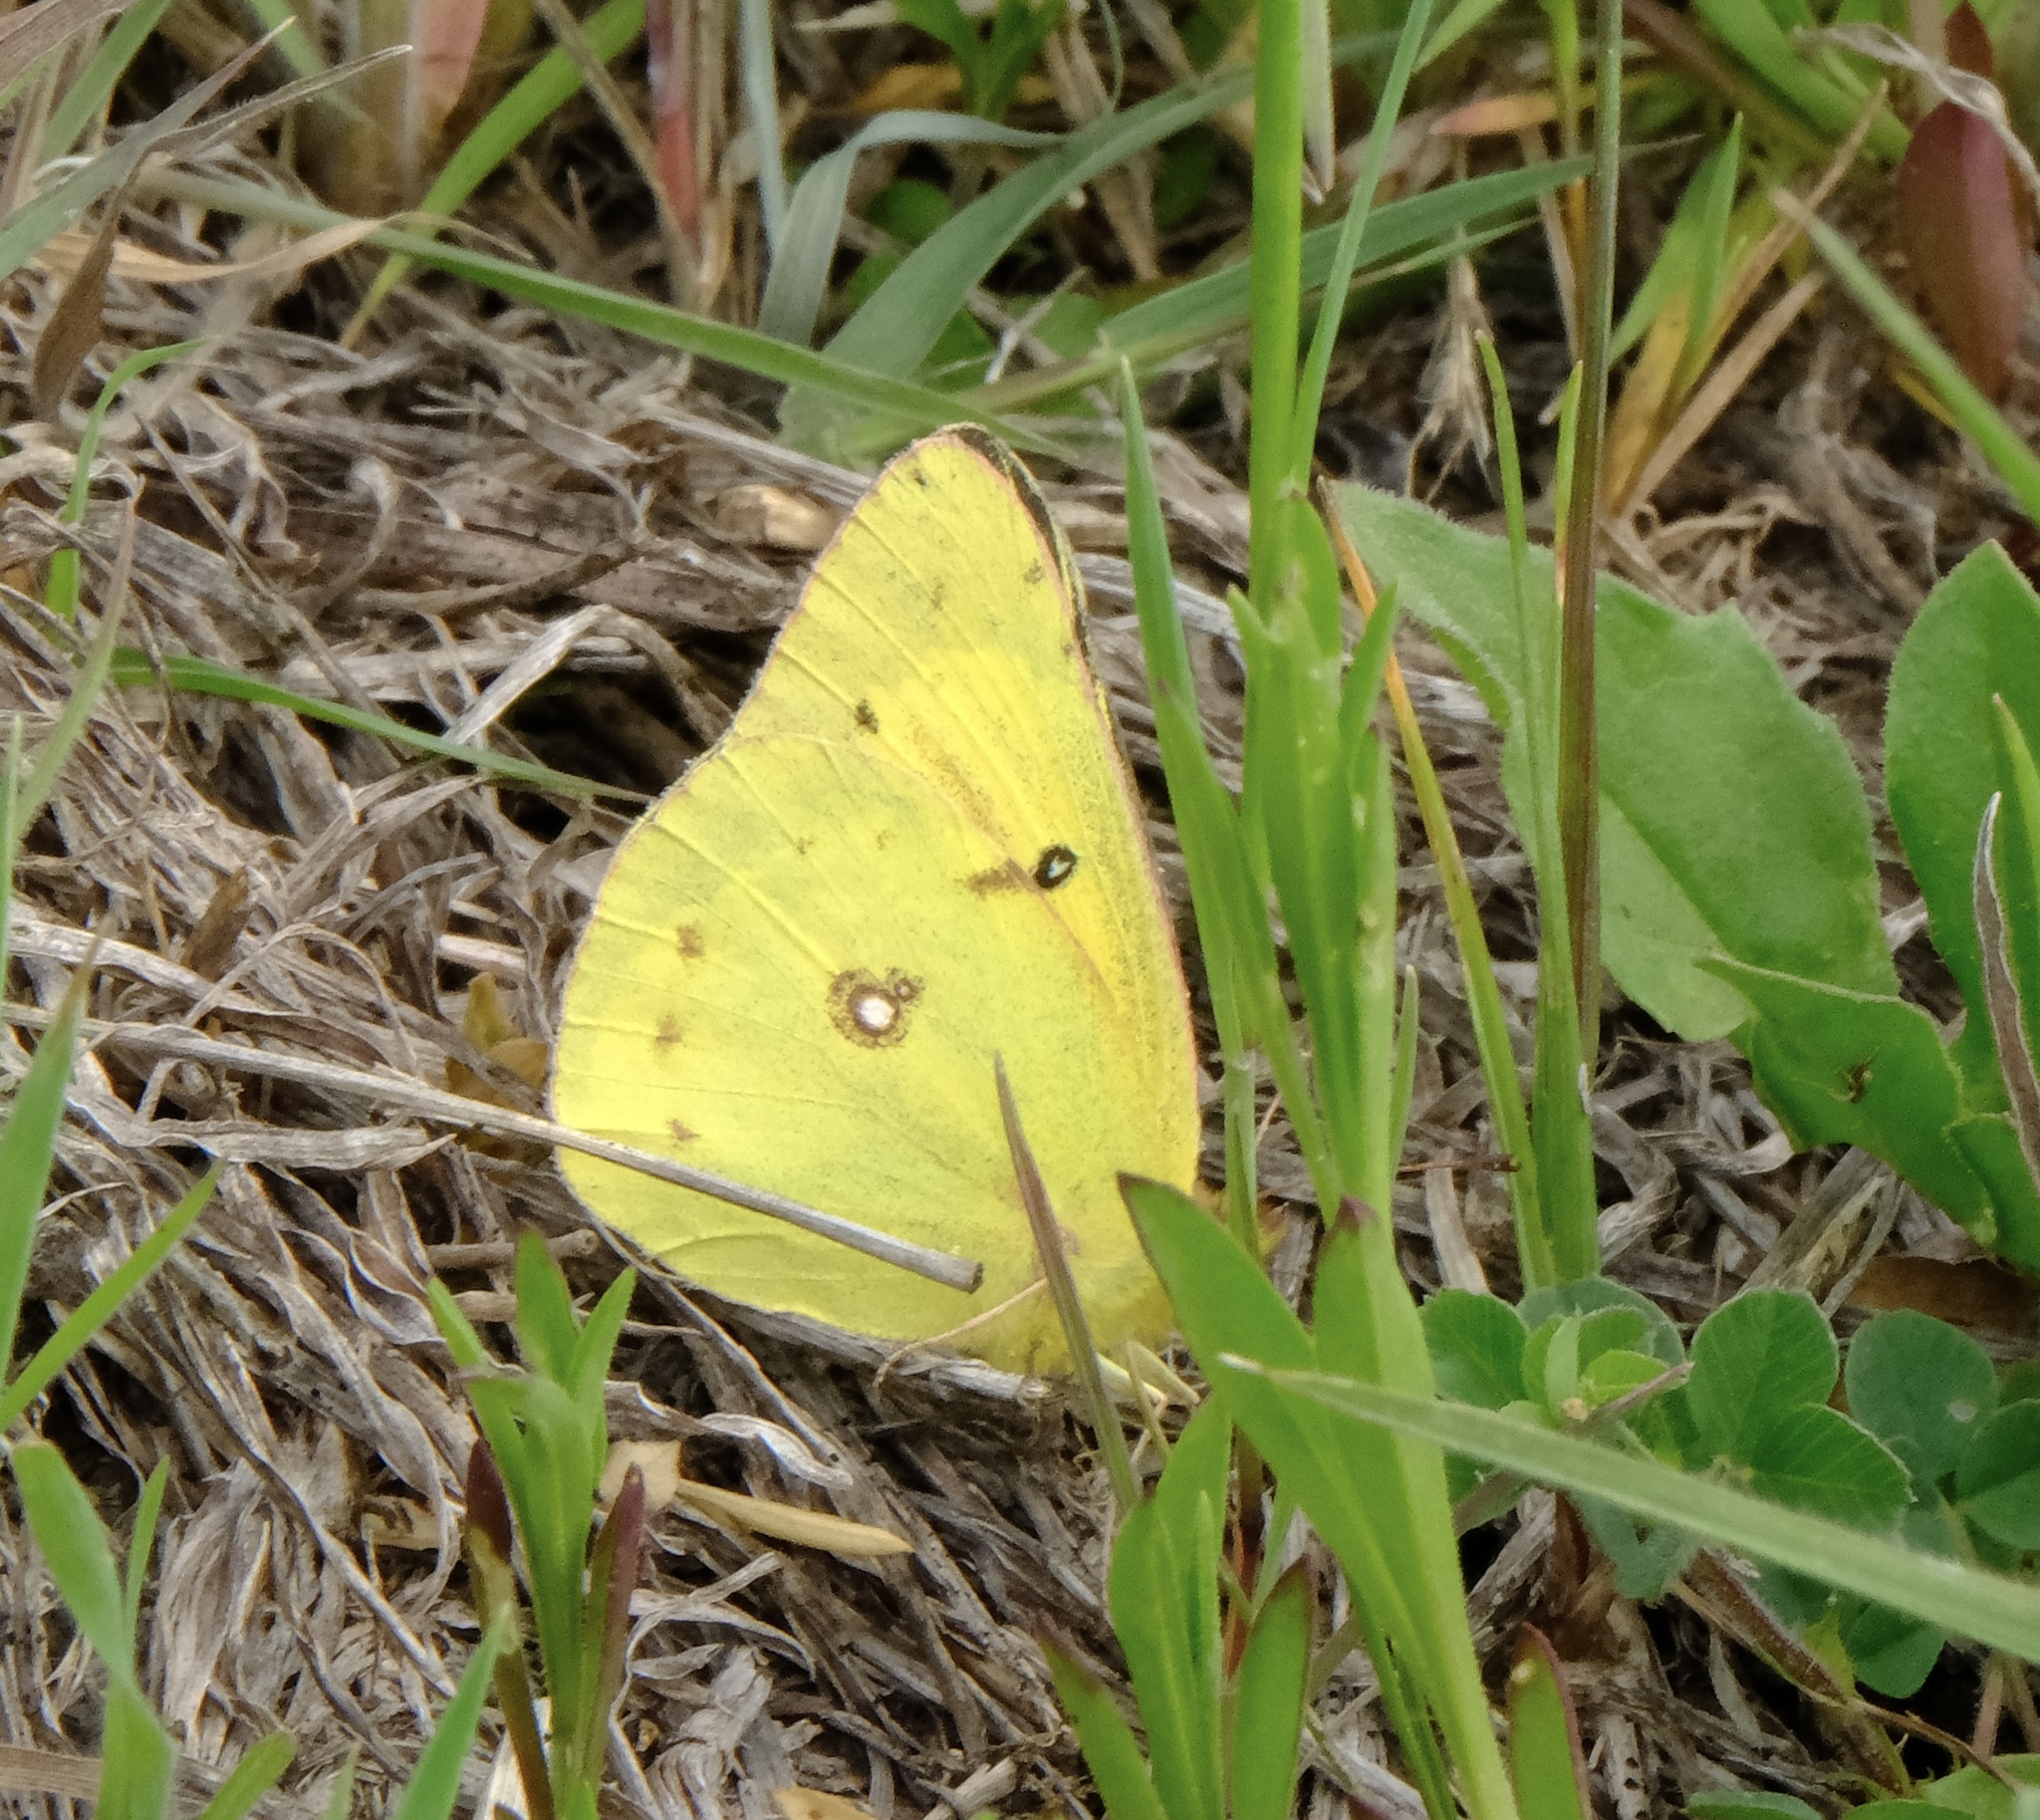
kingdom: Animalia
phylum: Arthropoda
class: Insecta
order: Lepidoptera
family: Pieridae
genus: Colias
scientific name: Colias eurytheme
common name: Alfalfa butterfly
